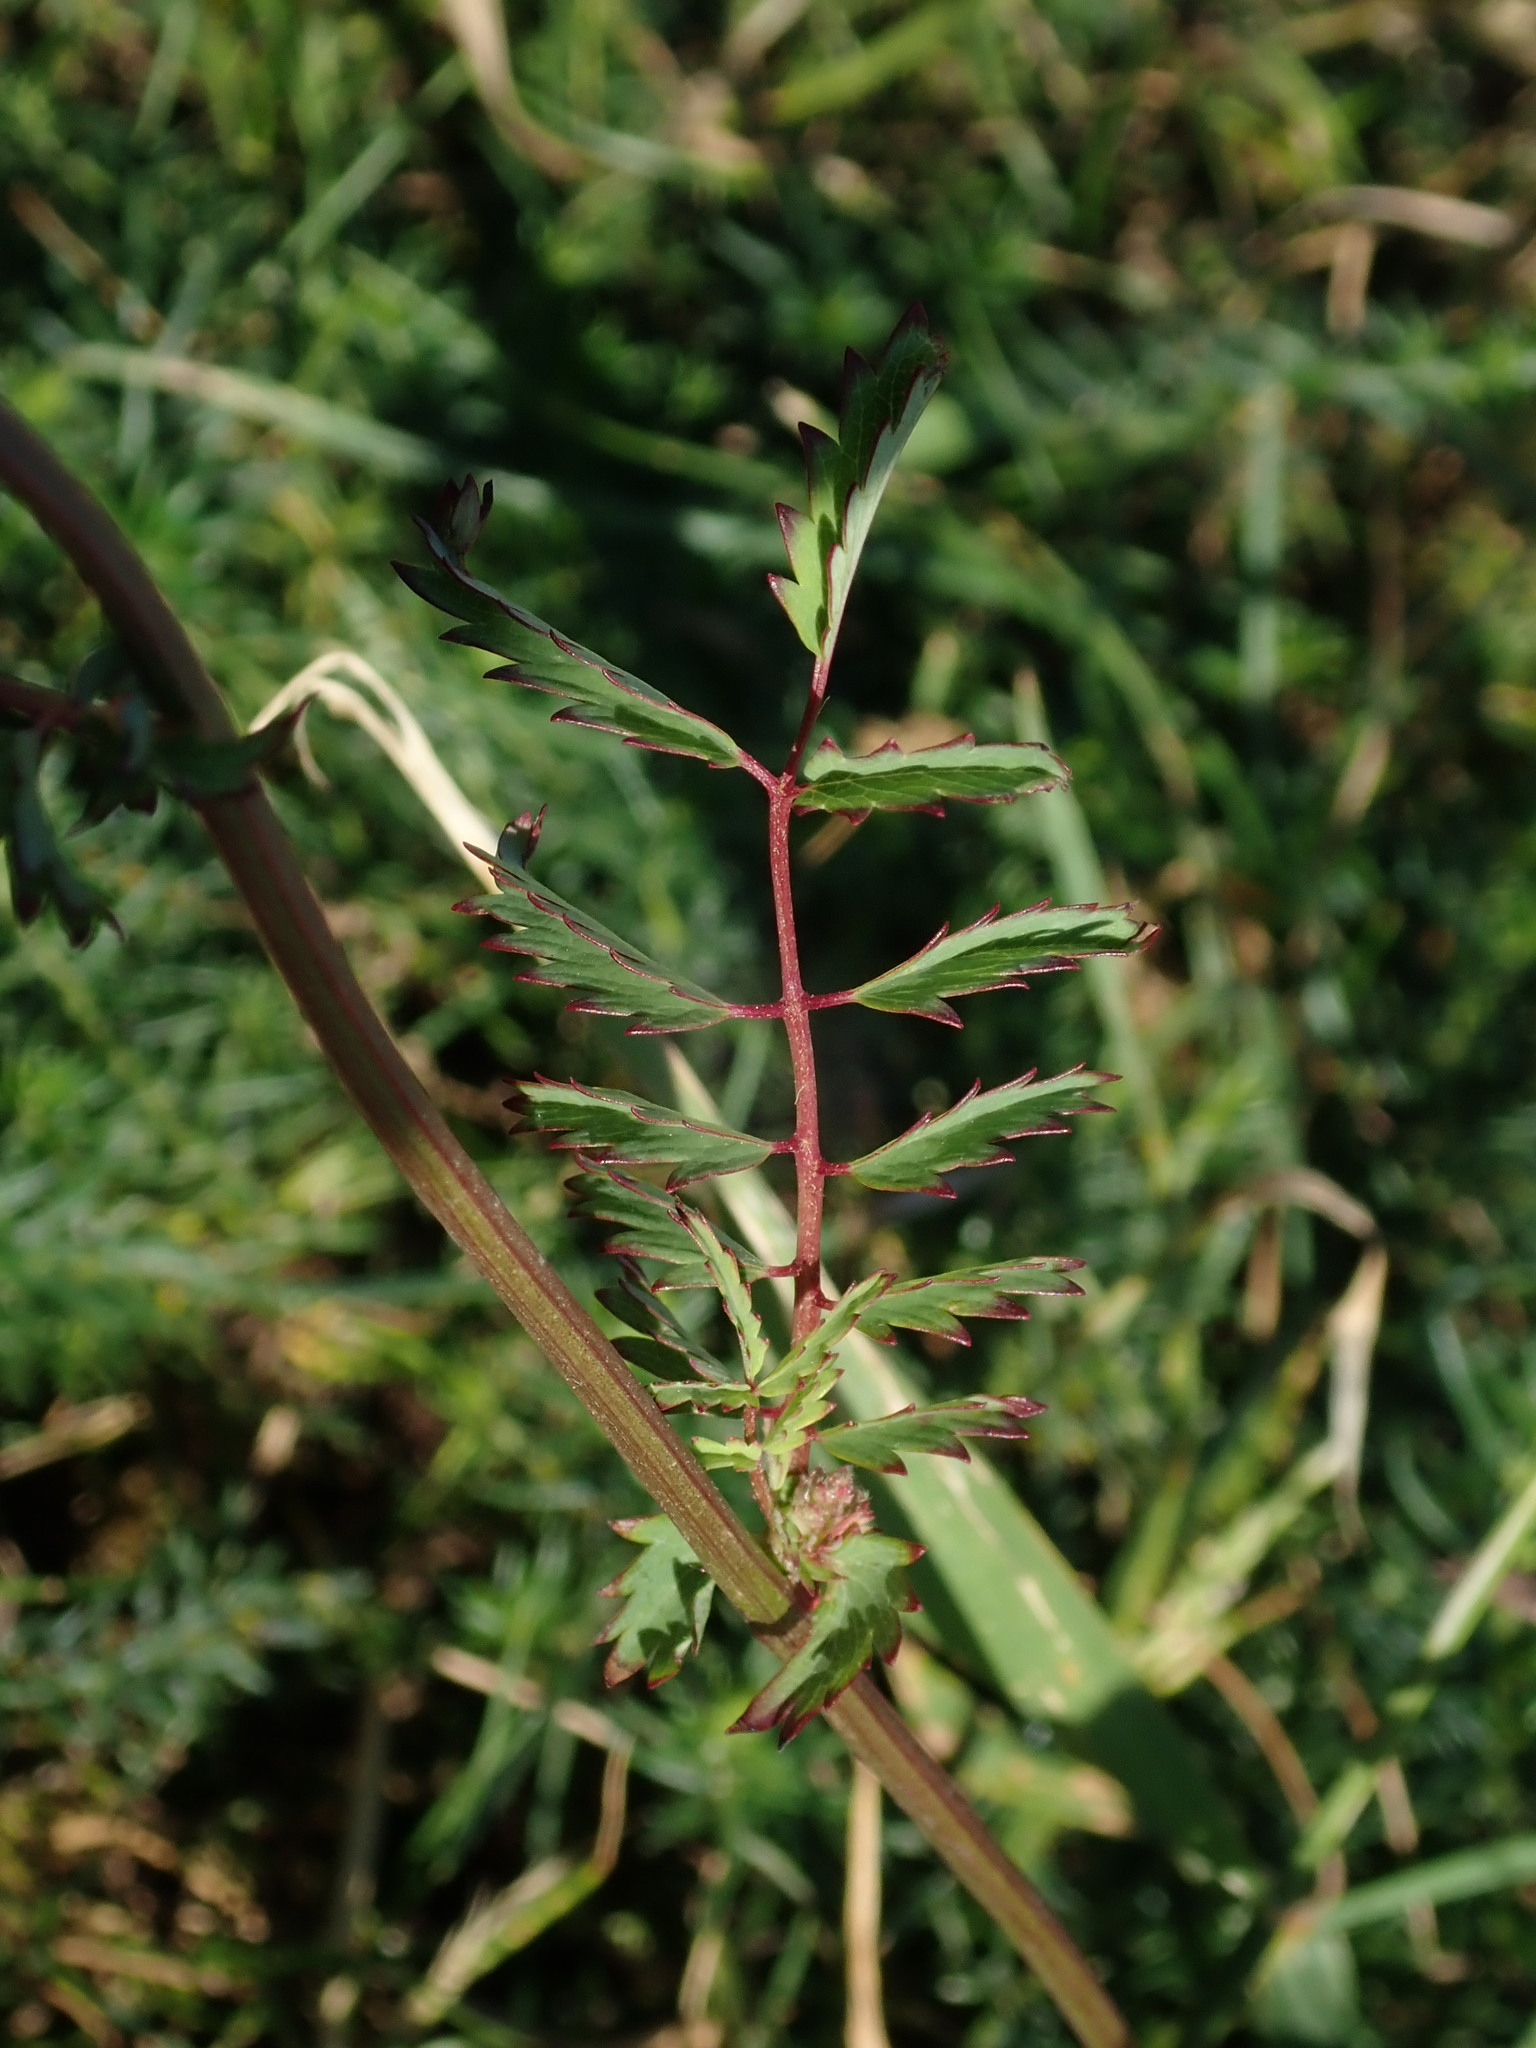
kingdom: Plantae
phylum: Tracheophyta
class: Magnoliopsida
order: Rosales
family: Rosaceae
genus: Poterium
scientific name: Poterium sanguisorba
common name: Salad burnet
